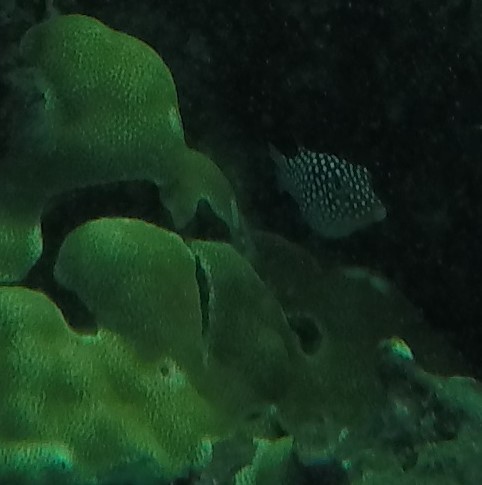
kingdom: Animalia
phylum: Chordata
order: Tetraodontiformes
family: Tetraodontidae
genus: Canthigaster
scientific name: Canthigaster jactator
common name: Hawaiian whitespotted toby
